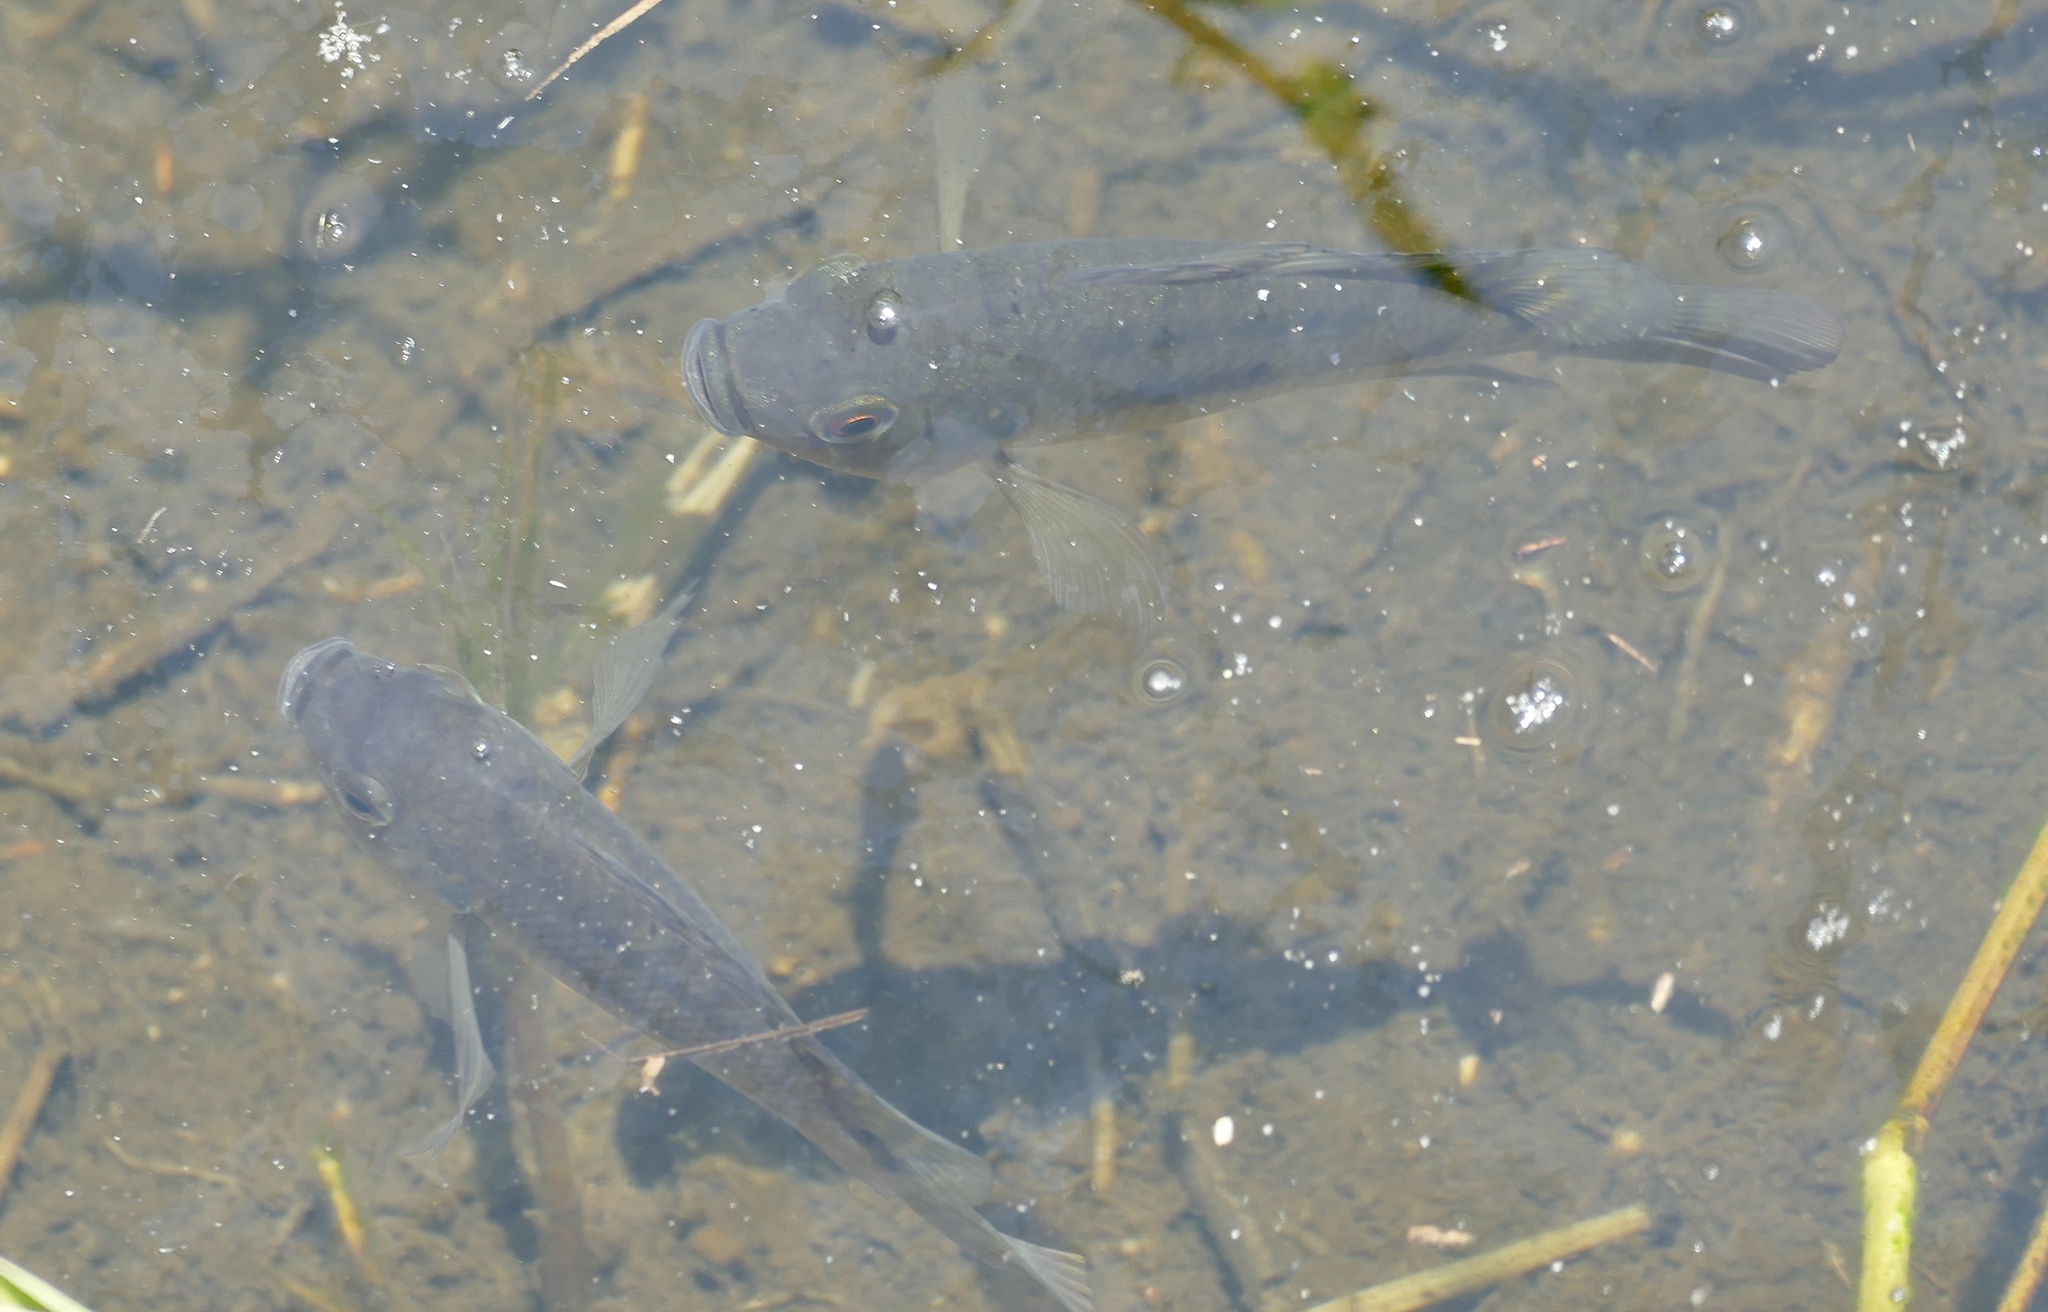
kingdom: Animalia
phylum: Chordata
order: Perciformes
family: Cichlidae
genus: Oreochromis
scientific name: Oreochromis niloticus
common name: Nile tilapia
